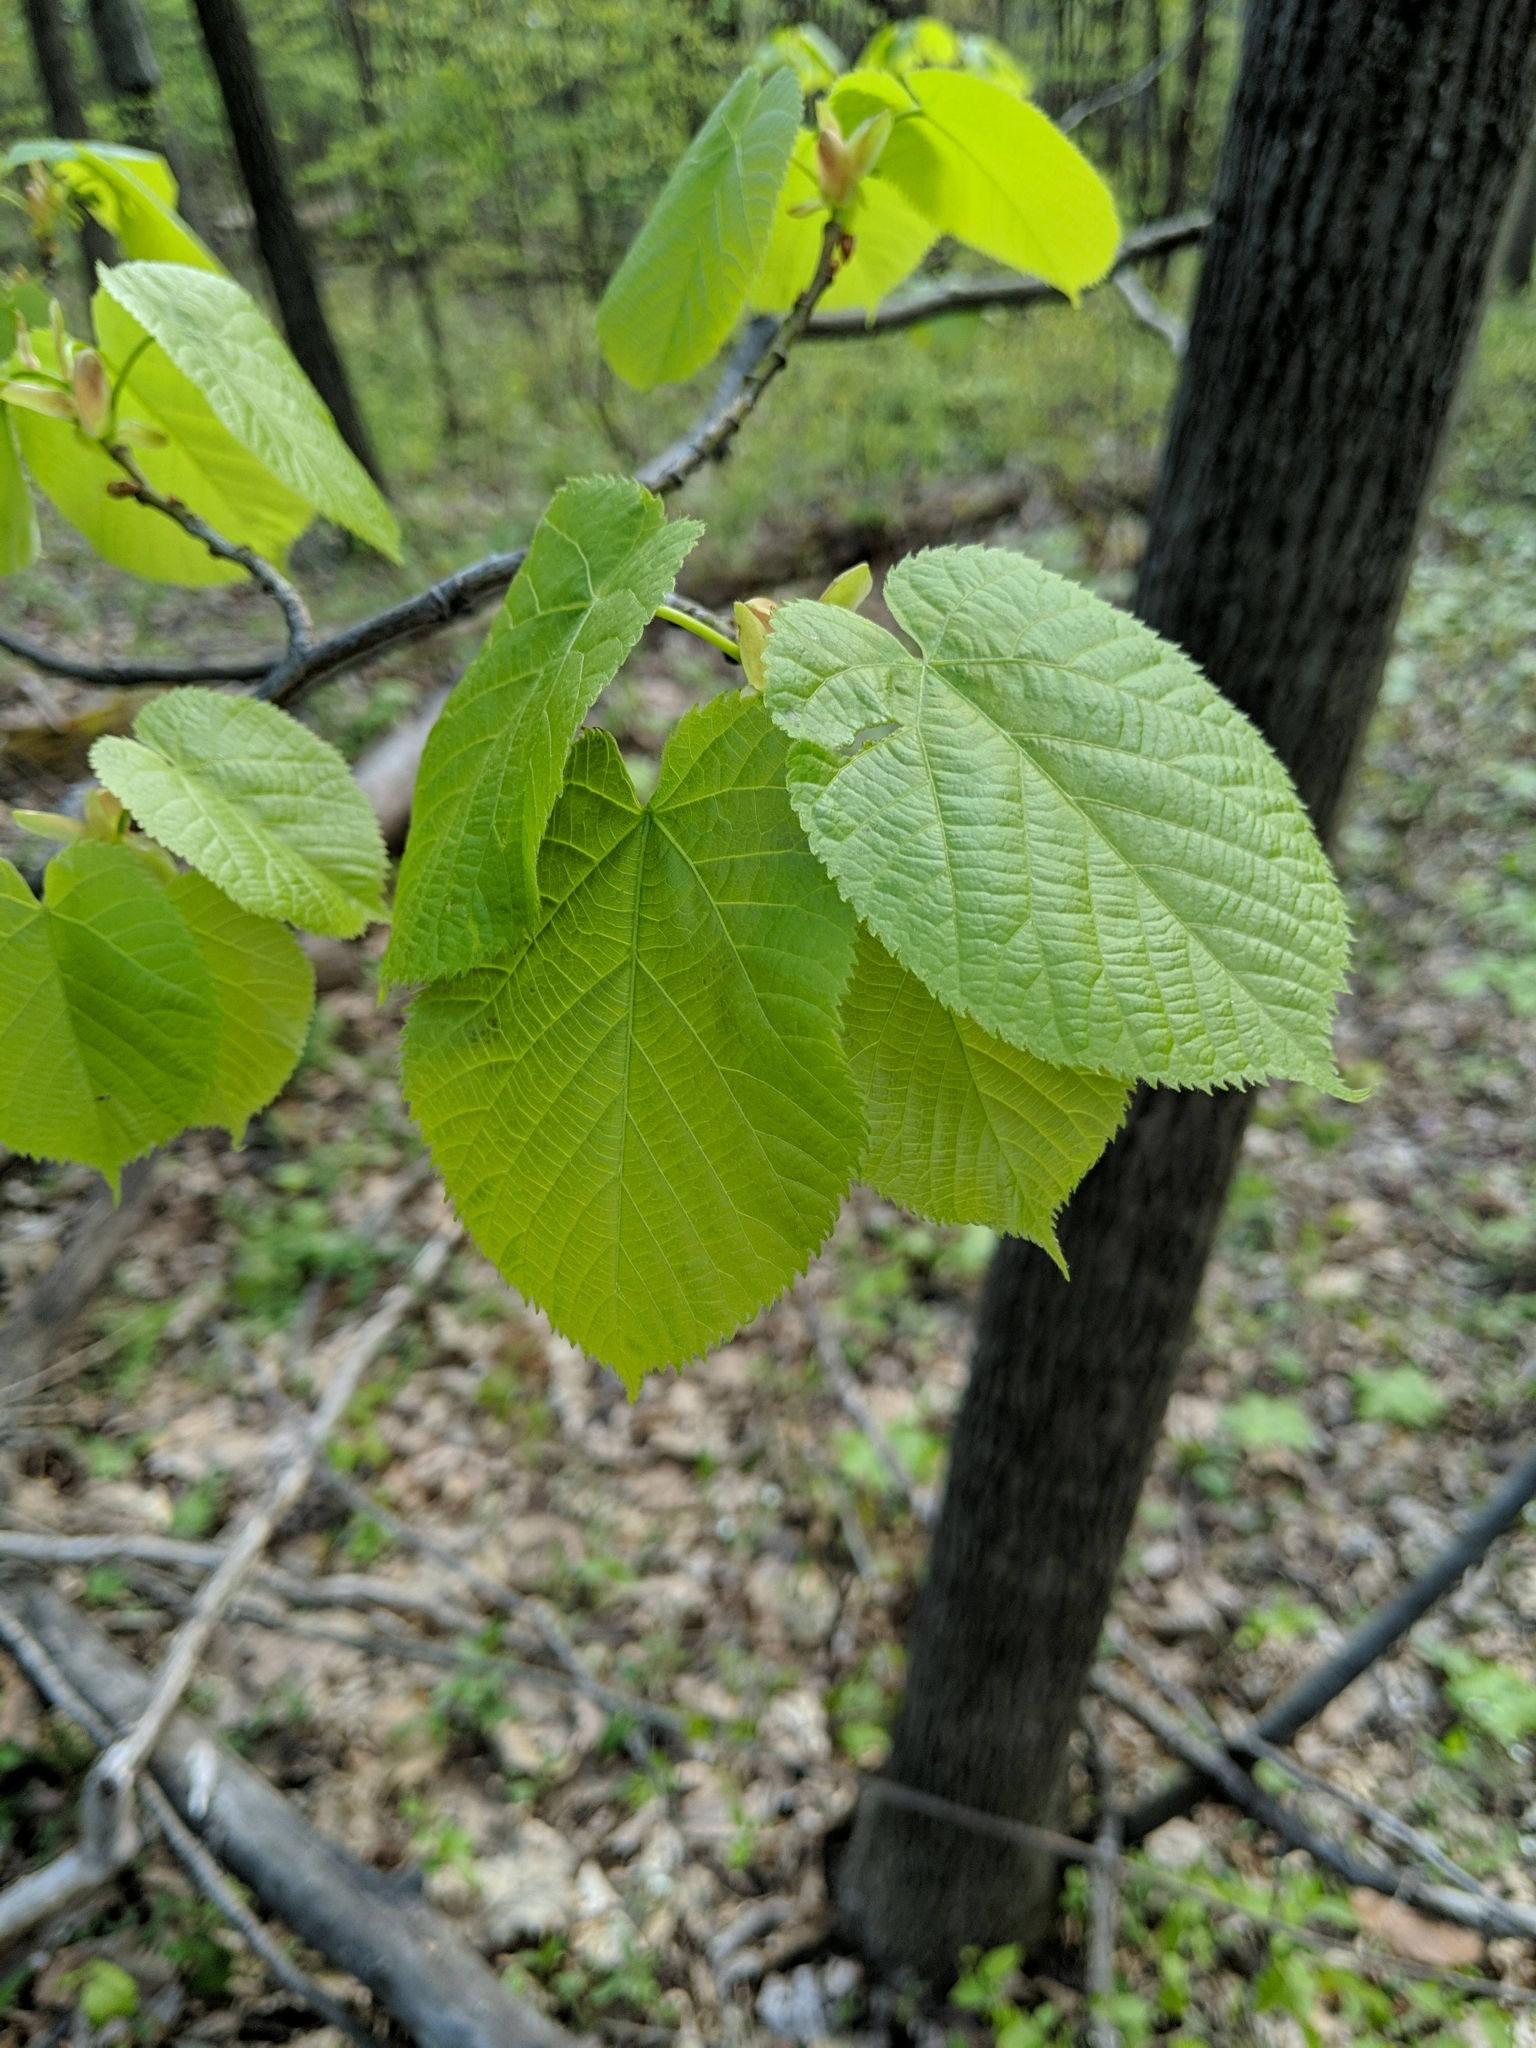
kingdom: Plantae
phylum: Tracheophyta
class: Magnoliopsida
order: Malvales
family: Malvaceae
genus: Tilia
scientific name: Tilia americana
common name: Basswood
